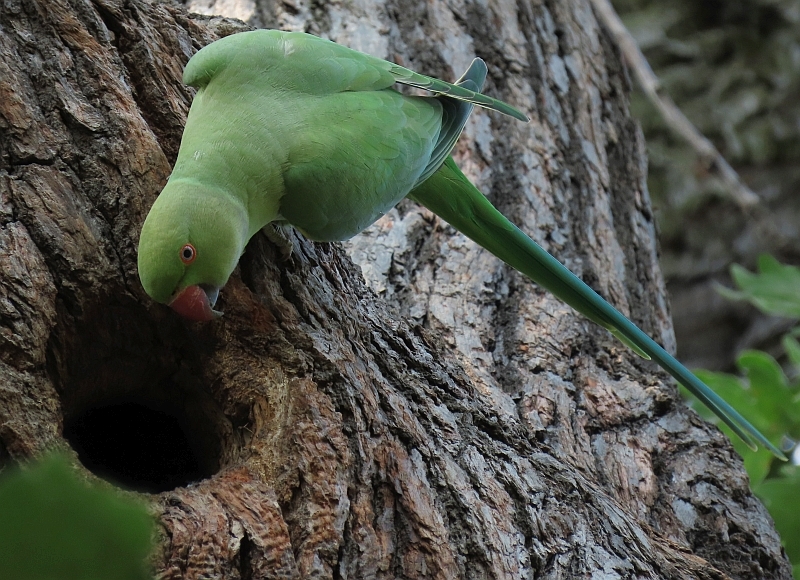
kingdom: Animalia
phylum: Chordata
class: Aves
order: Psittaciformes
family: Psittacidae
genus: Psittacula
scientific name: Psittacula krameri
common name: Rose-ringed parakeet
